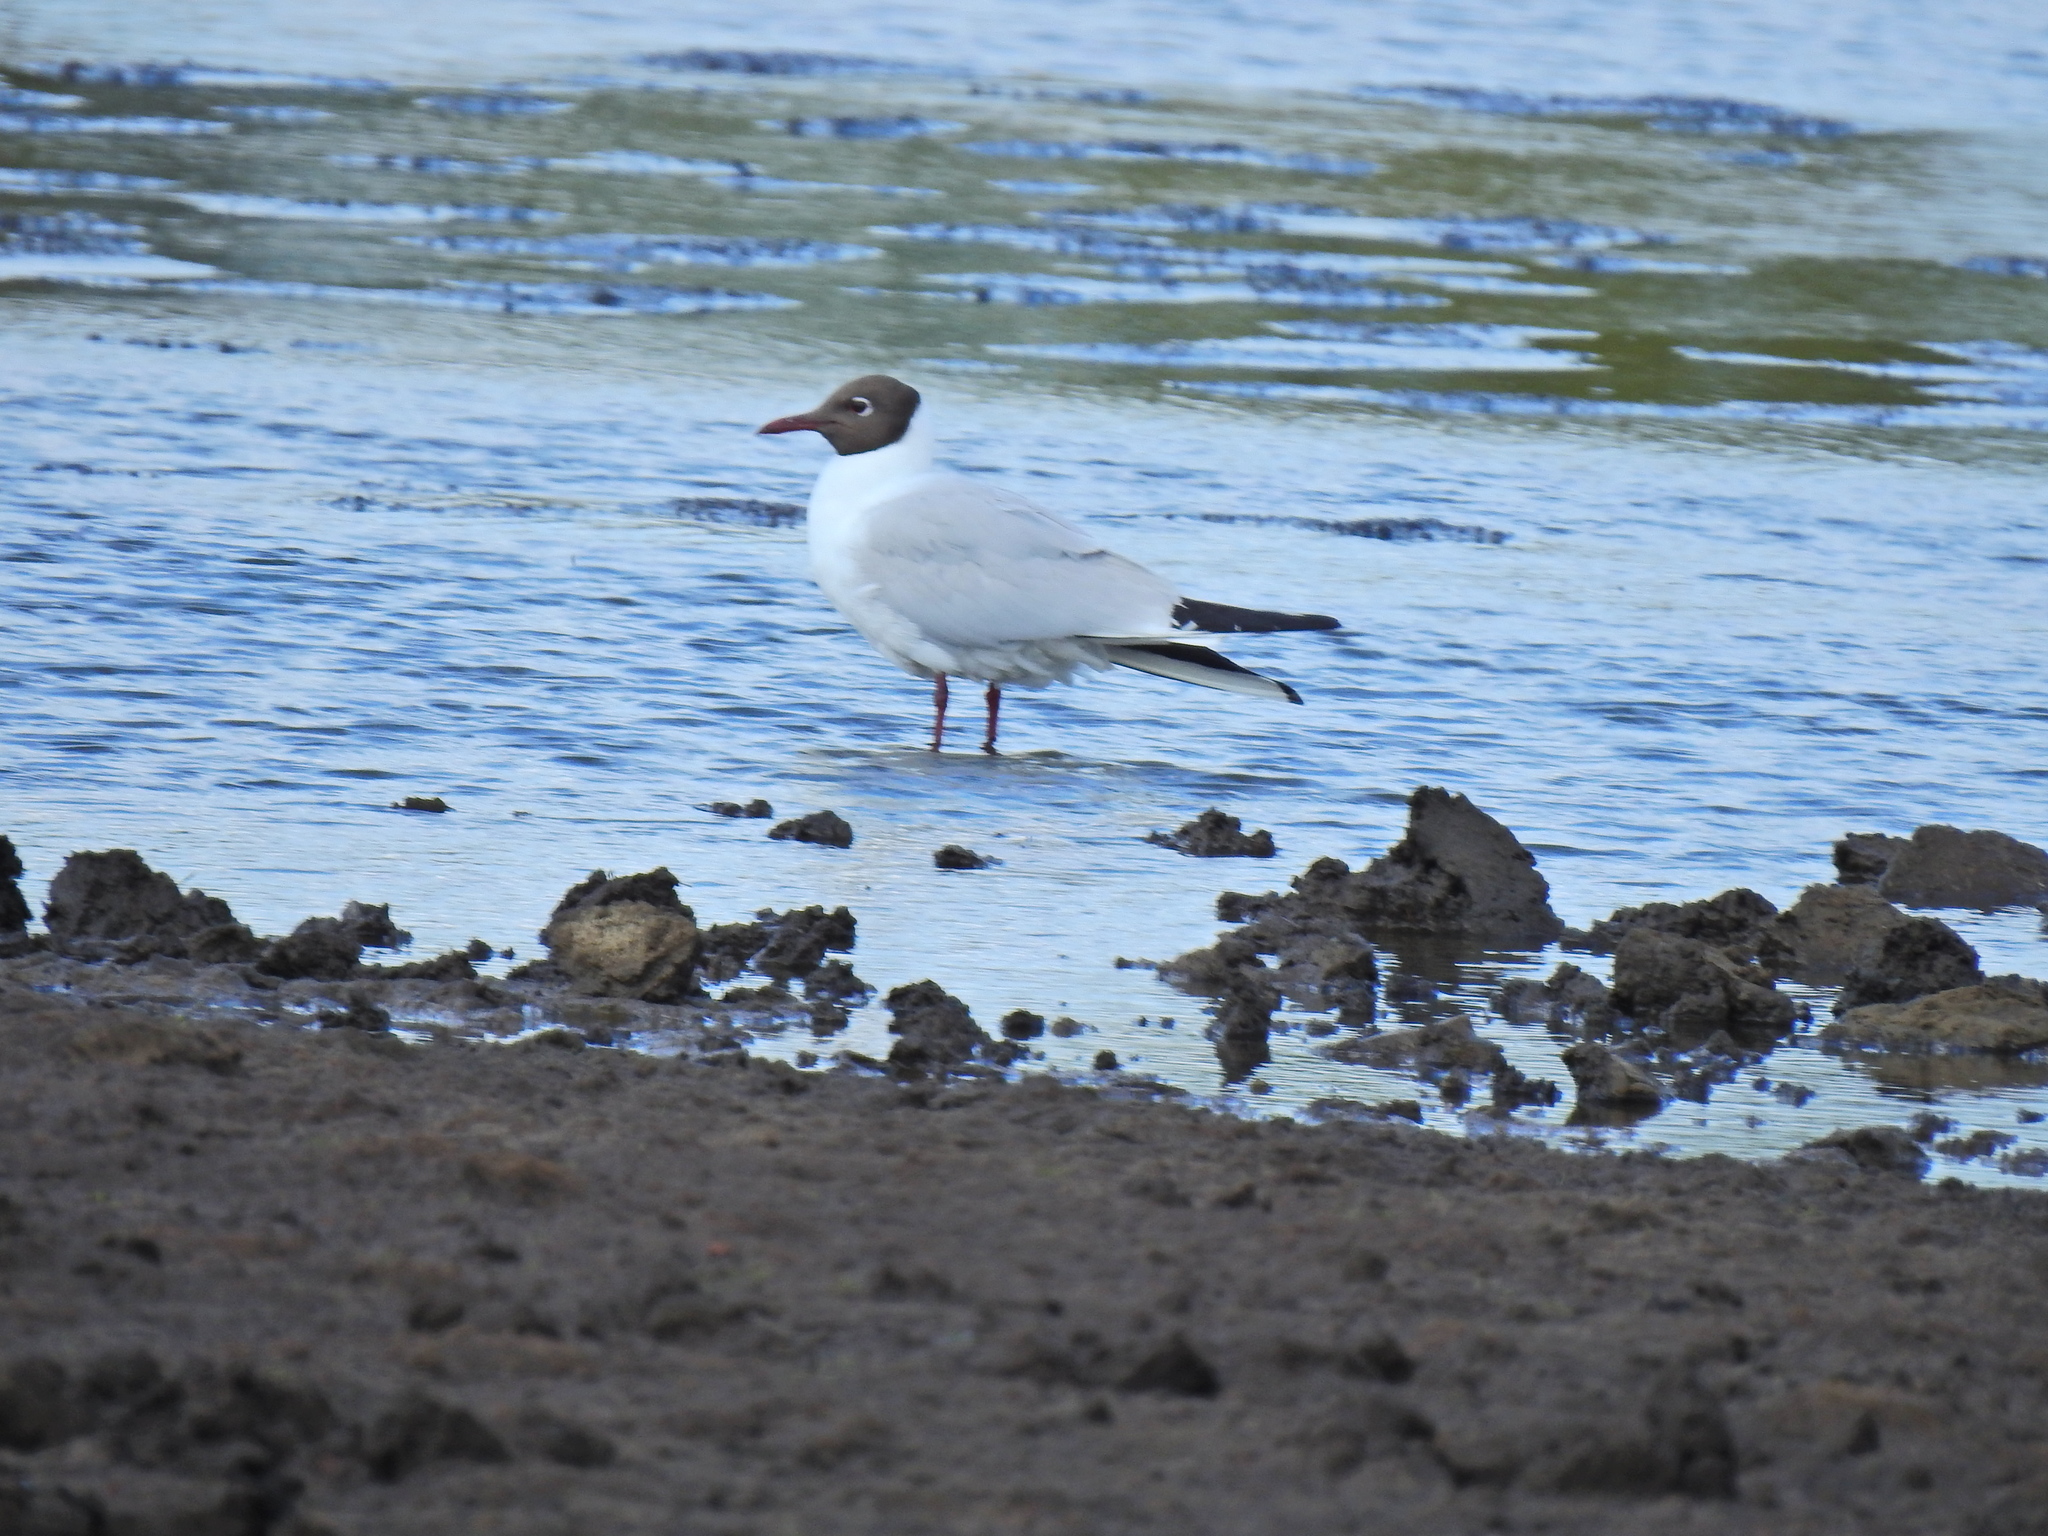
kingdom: Animalia
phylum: Chordata
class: Aves
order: Charadriiformes
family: Laridae
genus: Chroicocephalus
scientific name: Chroicocephalus ridibundus
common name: Black-headed gull
